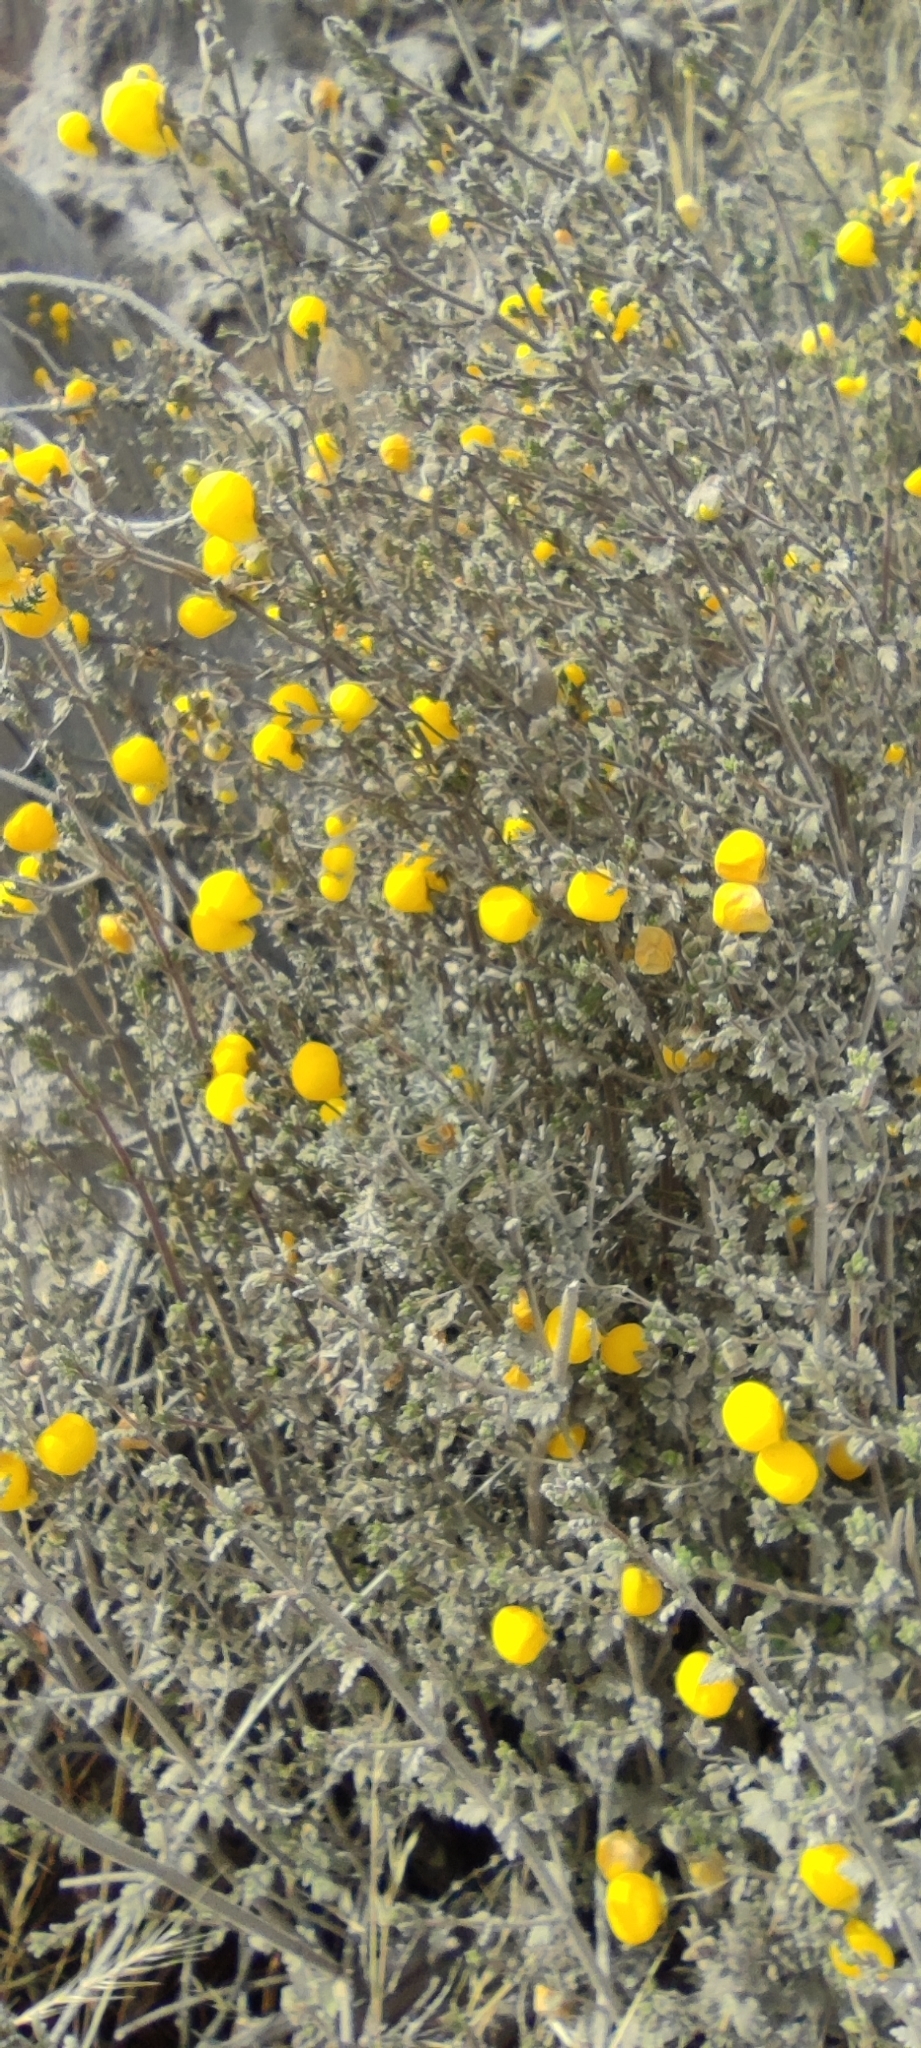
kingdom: Plantae
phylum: Tracheophyta
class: Magnoliopsida
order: Lamiales
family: Calceolariaceae
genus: Calceolaria
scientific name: Calceolaria inamoena
